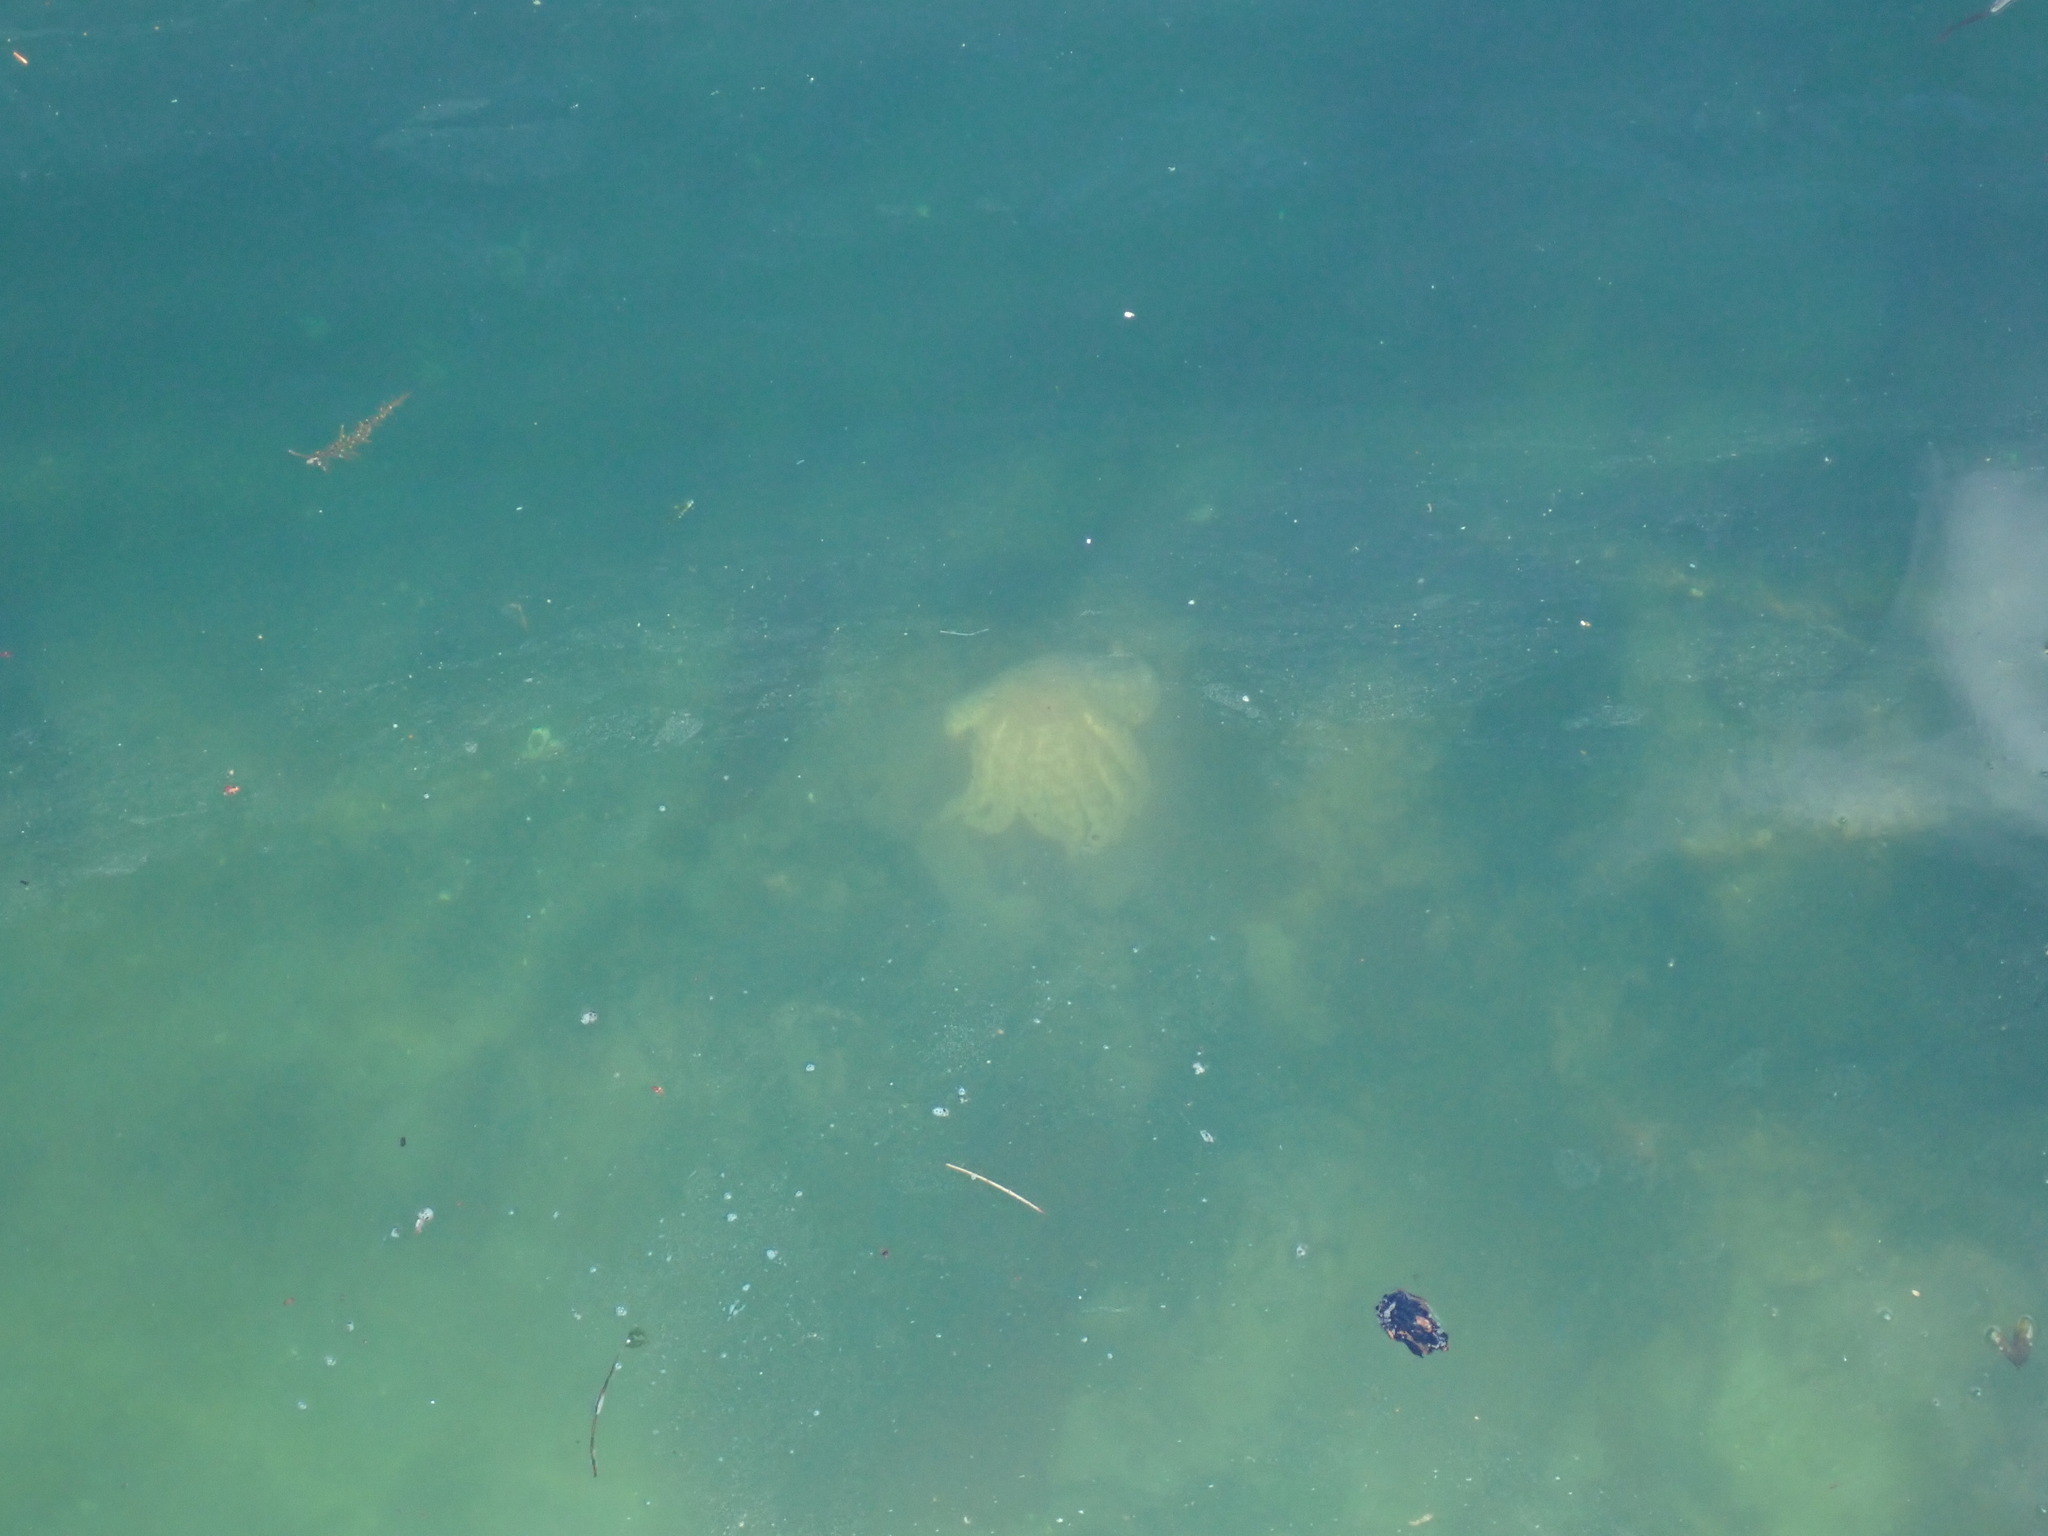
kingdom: Animalia
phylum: Echinodermata
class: Asteroidea
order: Forcipulatida
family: Asteriidae
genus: Pycnopodia
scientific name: Pycnopodia helianthoides
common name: Rag mop
